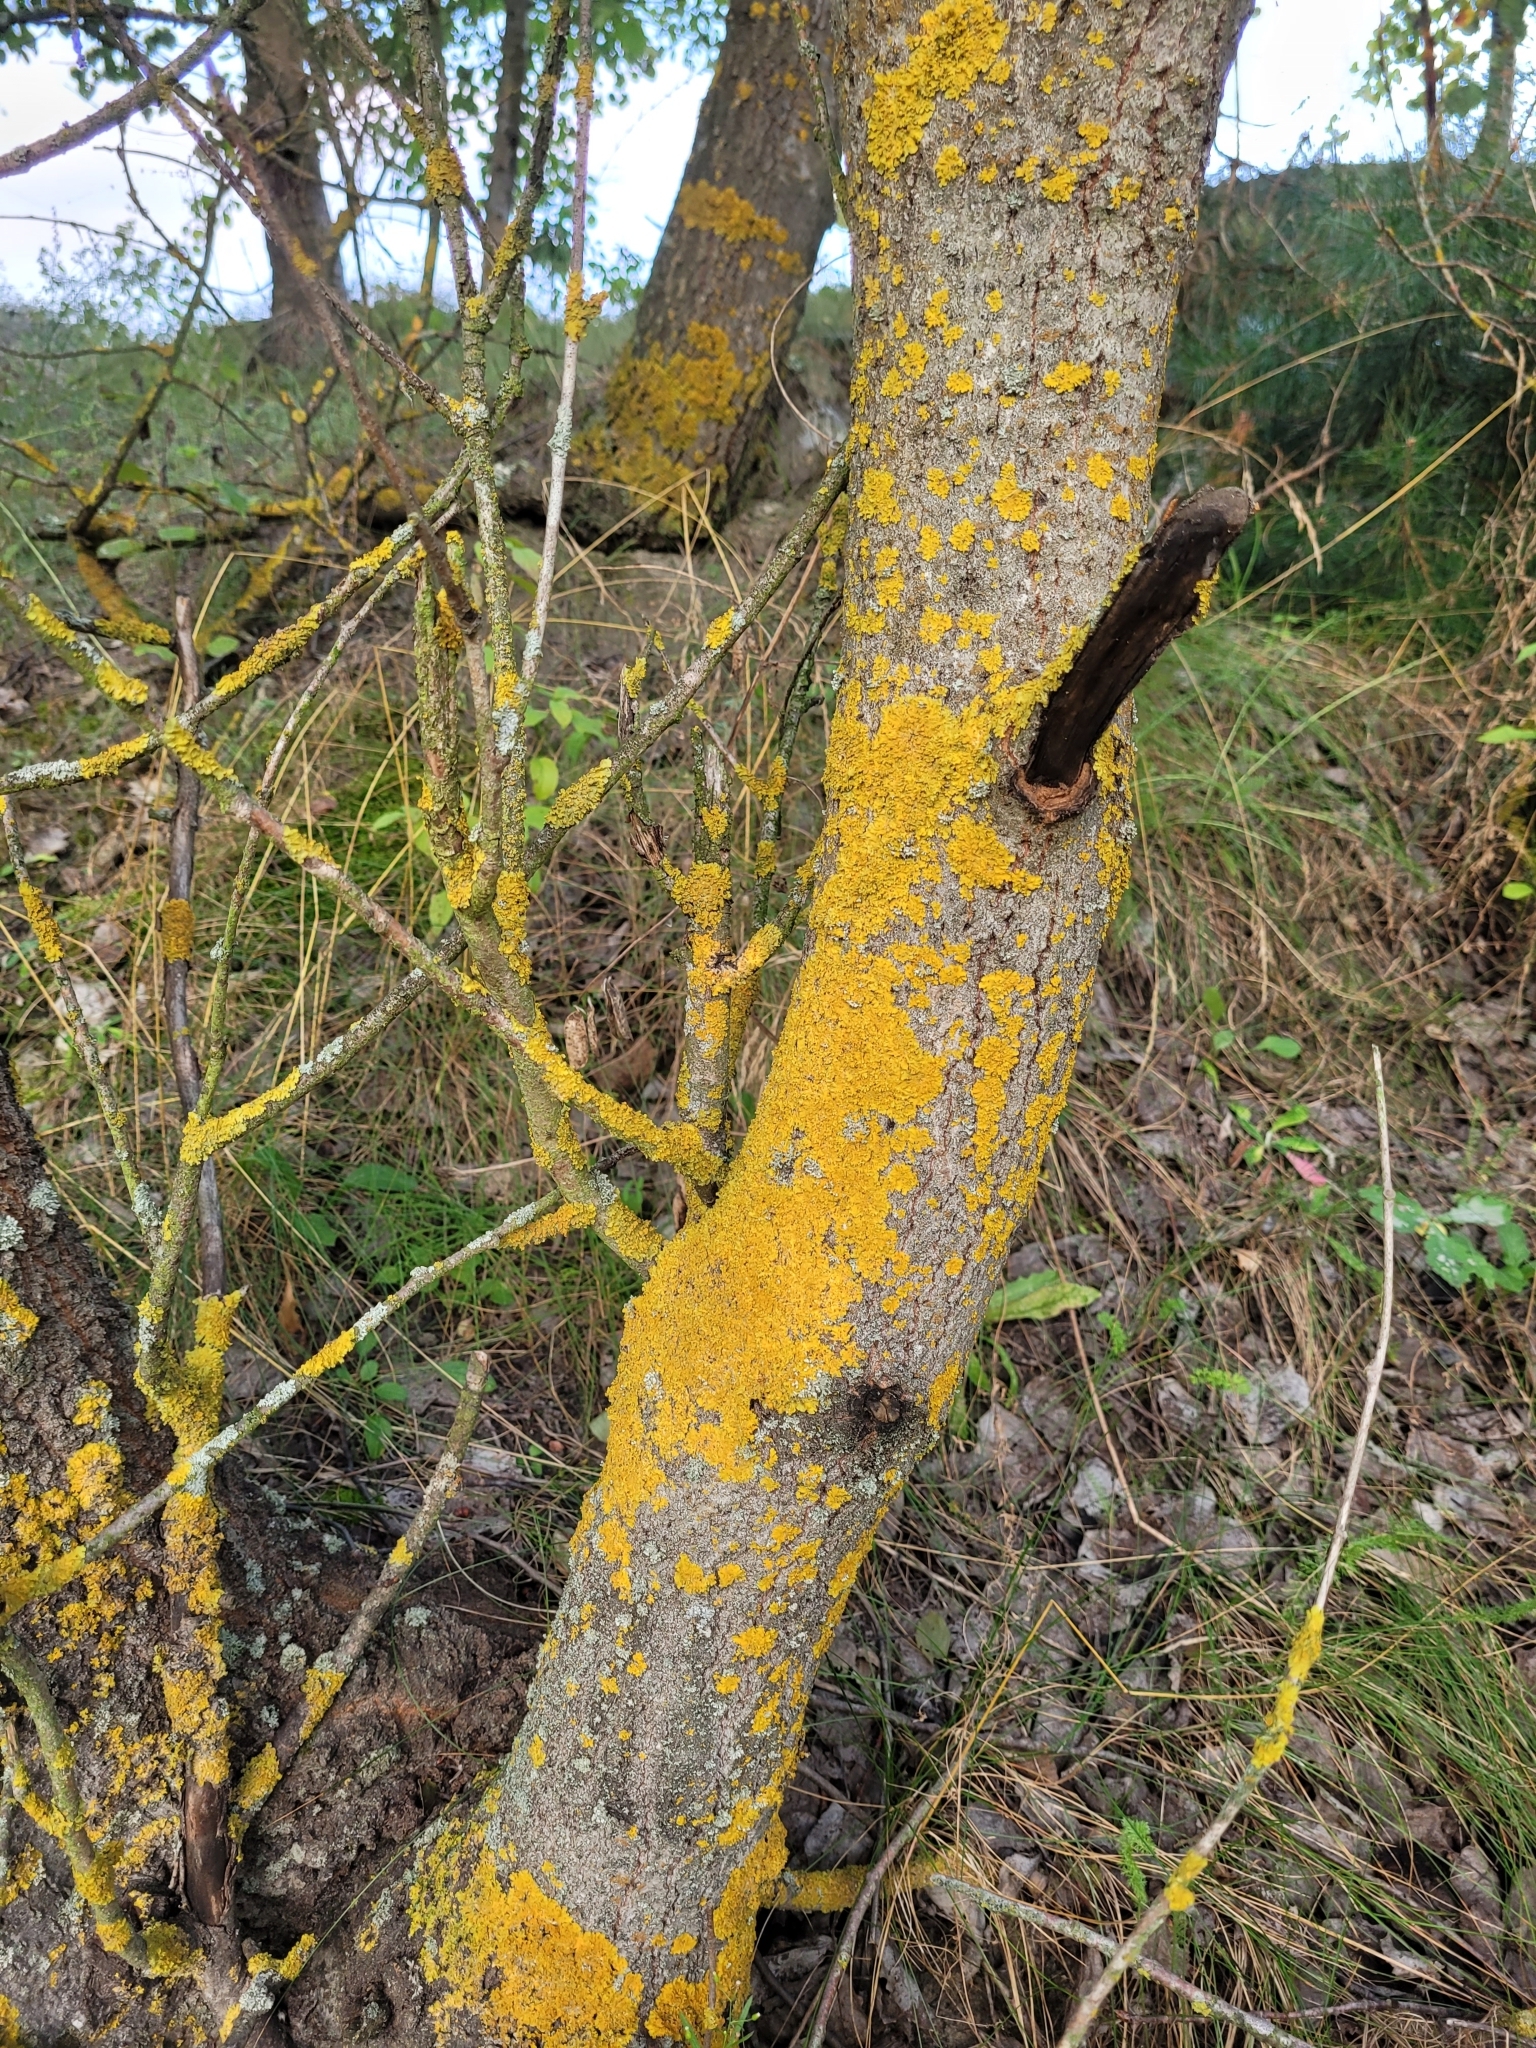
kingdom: Fungi
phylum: Ascomycota
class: Lecanoromycetes
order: Teloschistales
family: Teloschistaceae
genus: Xanthoria
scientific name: Xanthoria parietina
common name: Common orange lichen
